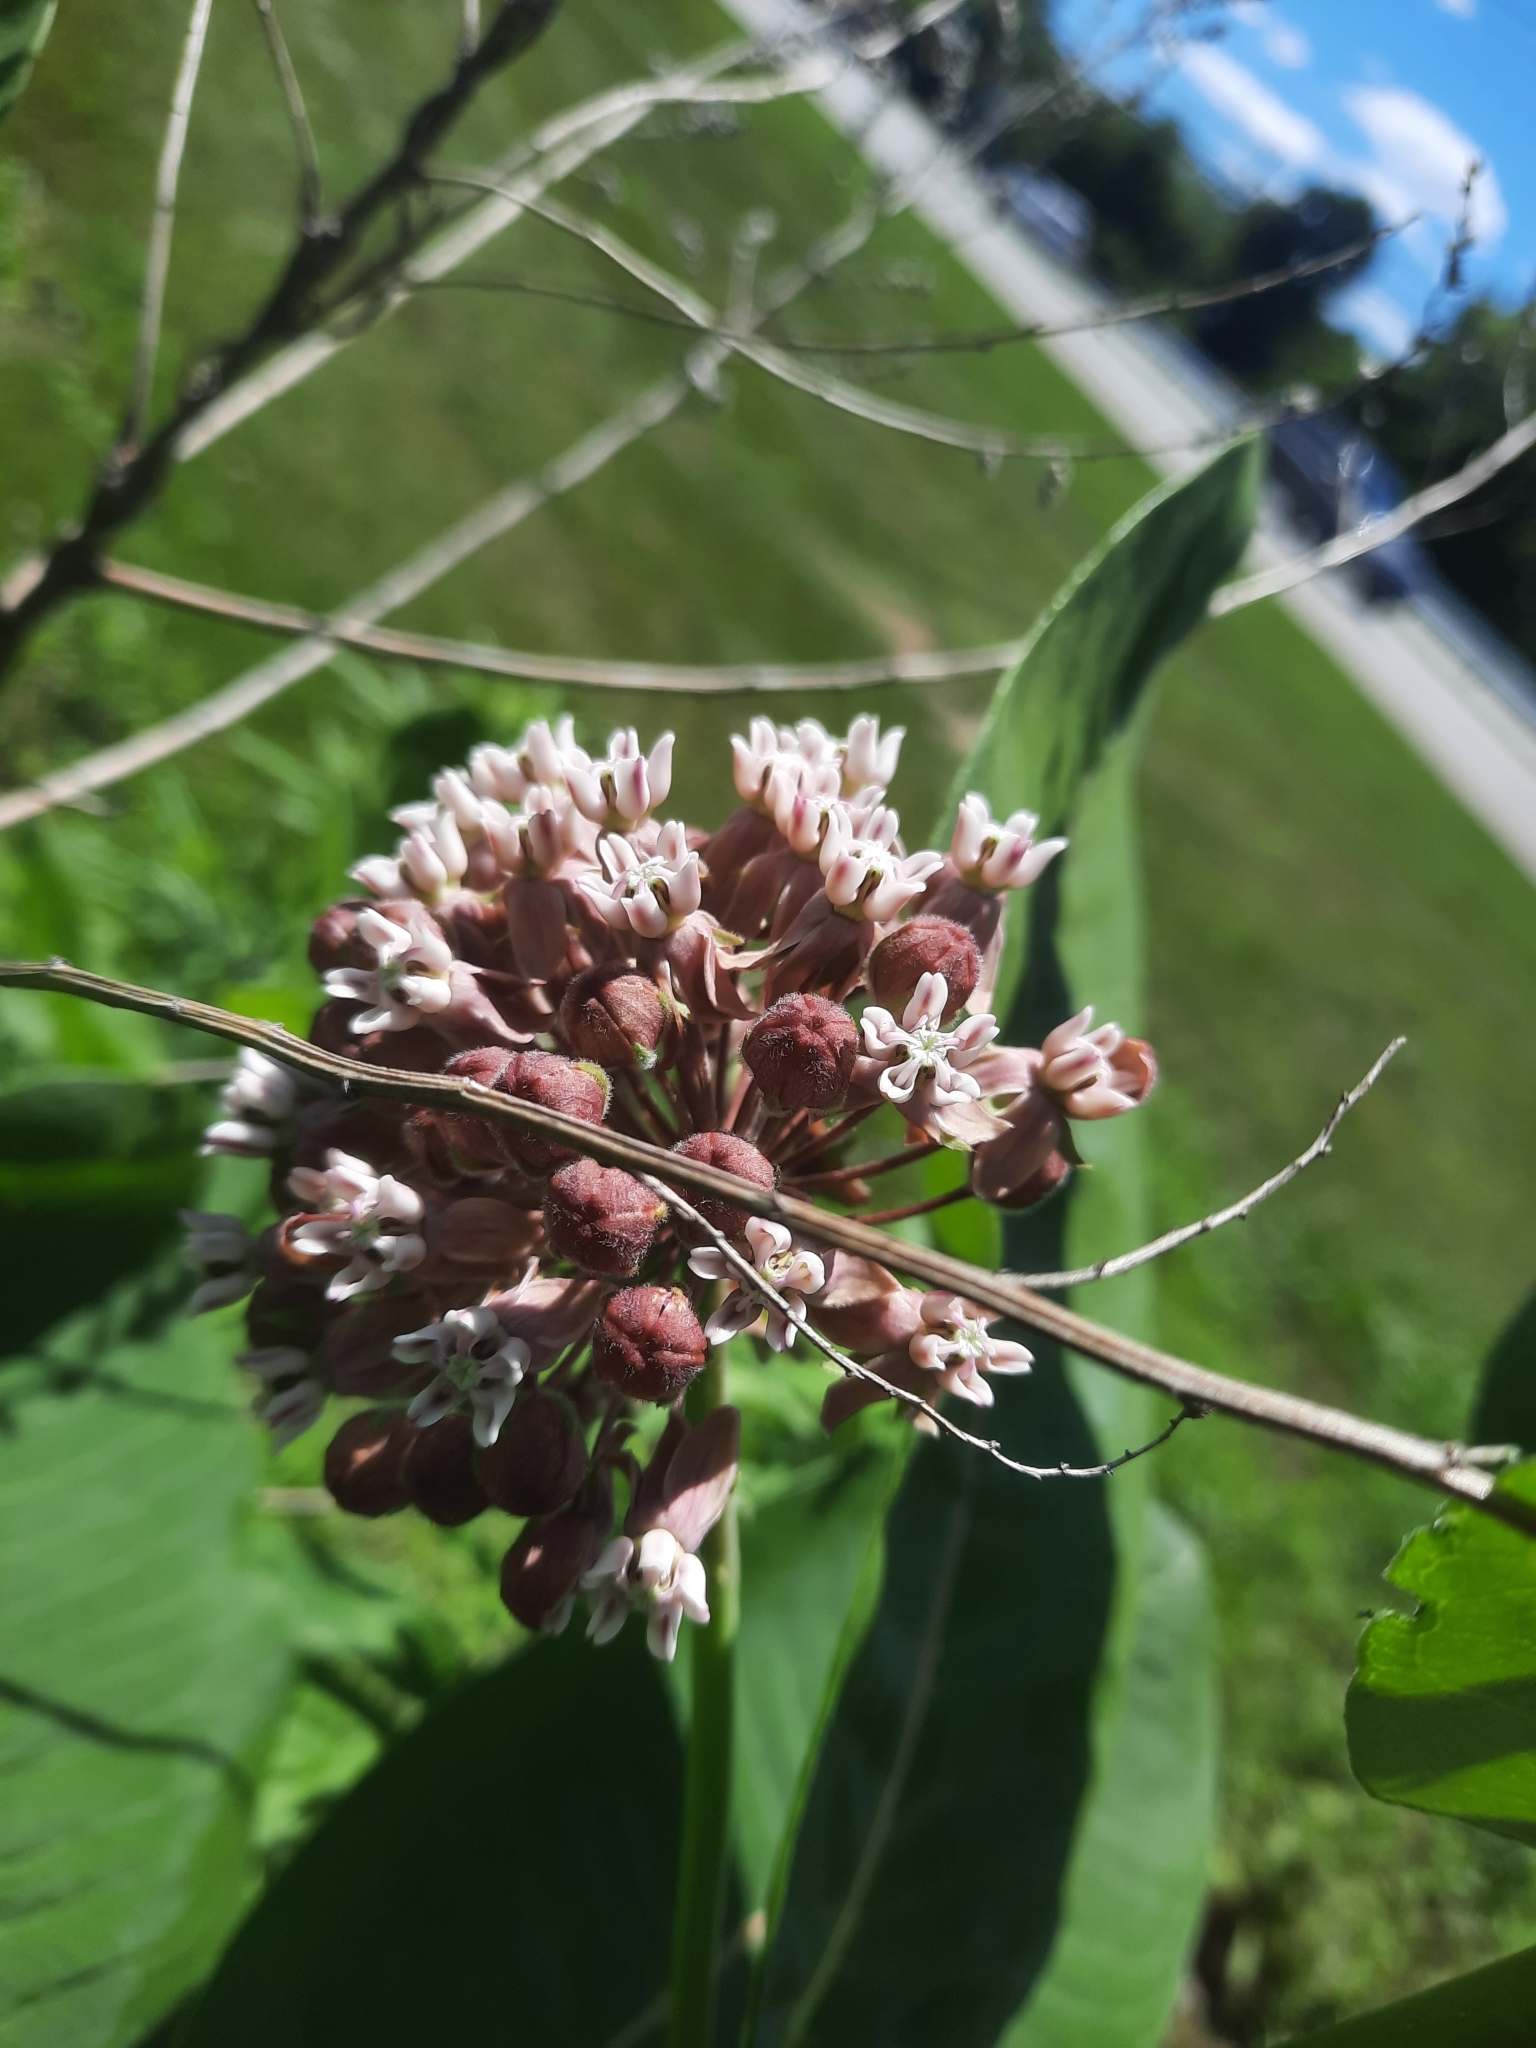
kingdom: Plantae
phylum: Tracheophyta
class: Magnoliopsida
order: Gentianales
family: Apocynaceae
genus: Asclepias
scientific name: Asclepias syriaca
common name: Common milkweed
